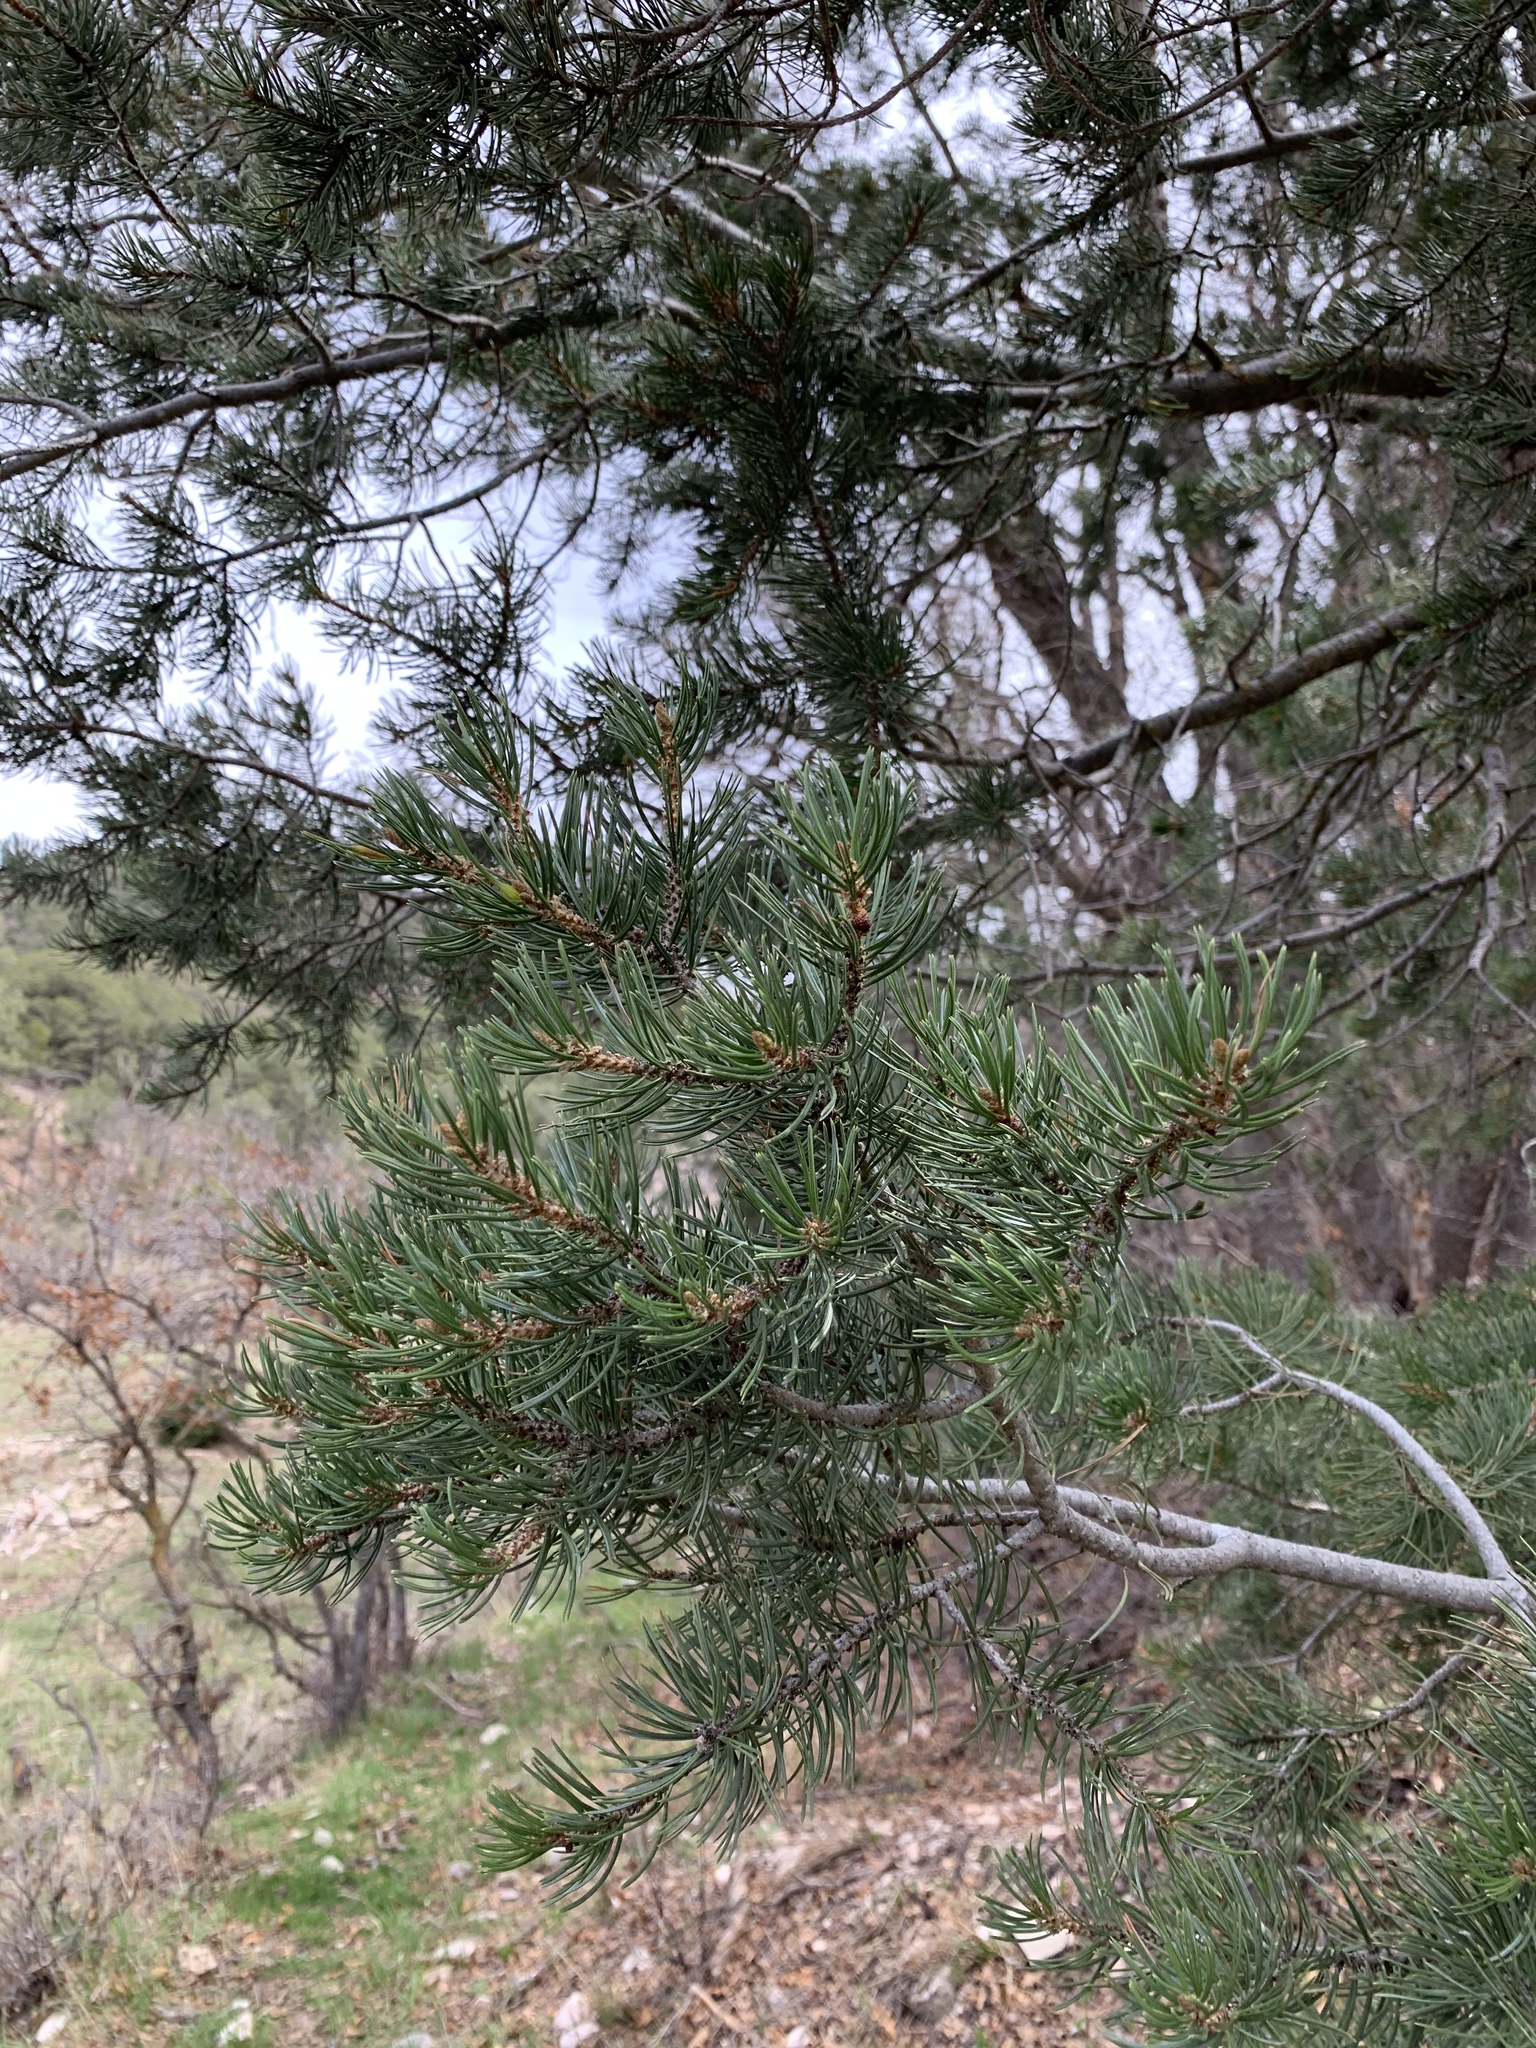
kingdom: Plantae
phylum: Tracheophyta
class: Pinopsida
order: Pinales
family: Pinaceae
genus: Pinus
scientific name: Pinus edulis
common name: Colorado pinyon
